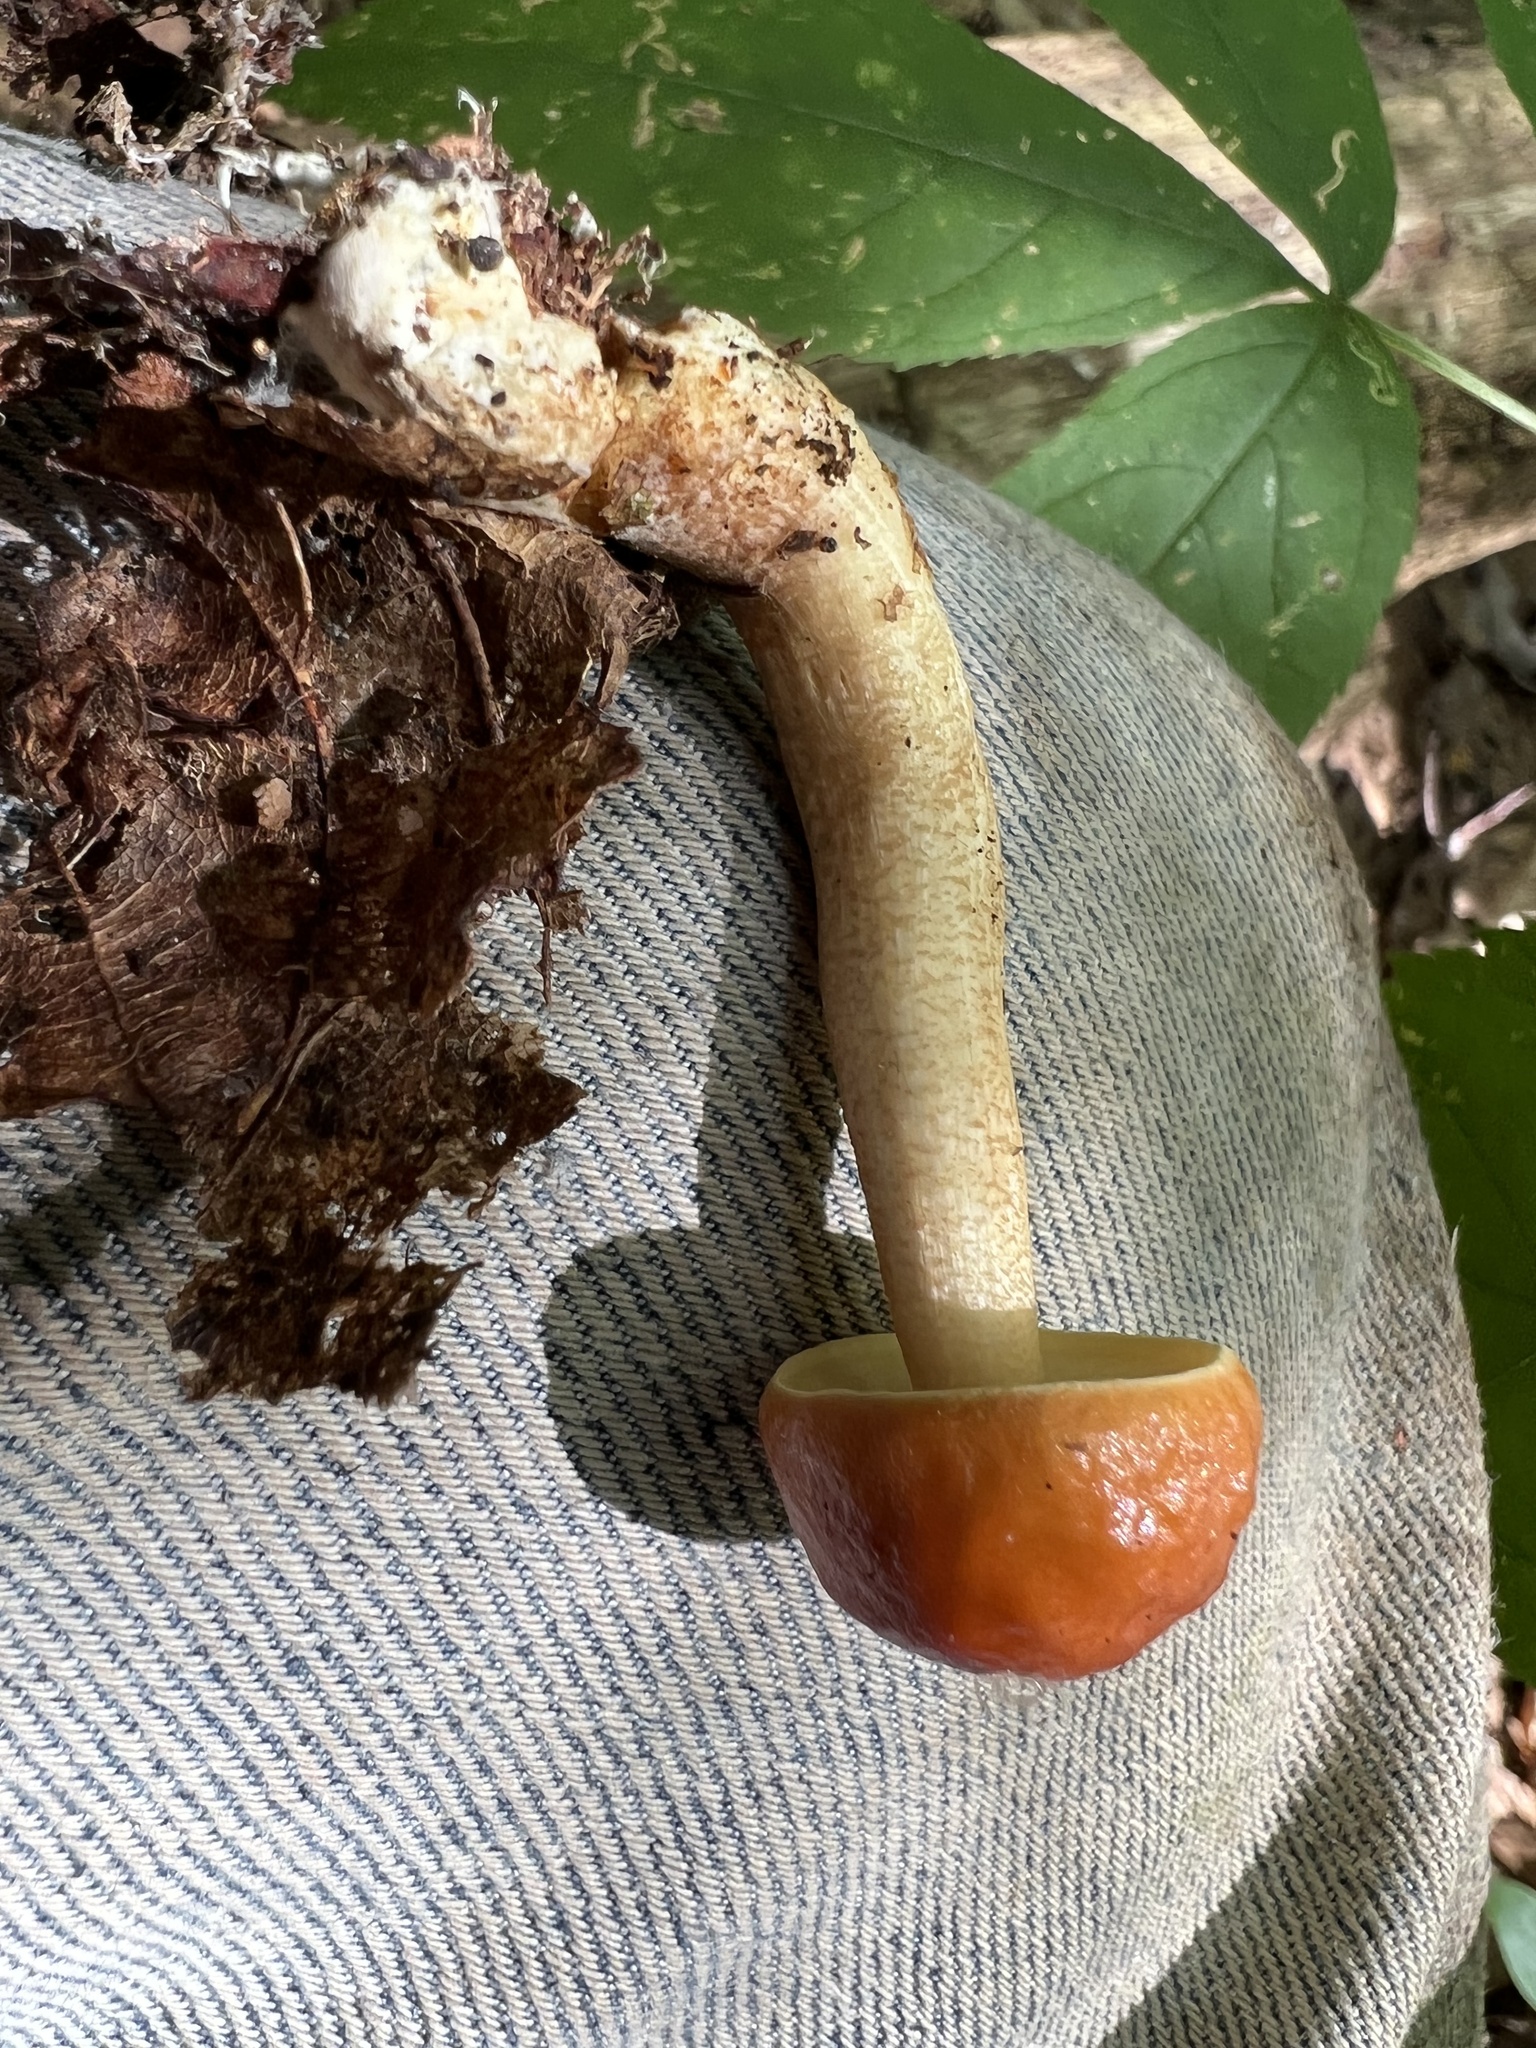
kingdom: Fungi
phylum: Basidiomycota
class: Agaricomycetes
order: Boletales
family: Boletaceae
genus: Leccinum
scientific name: Leccinum longicurvipes
